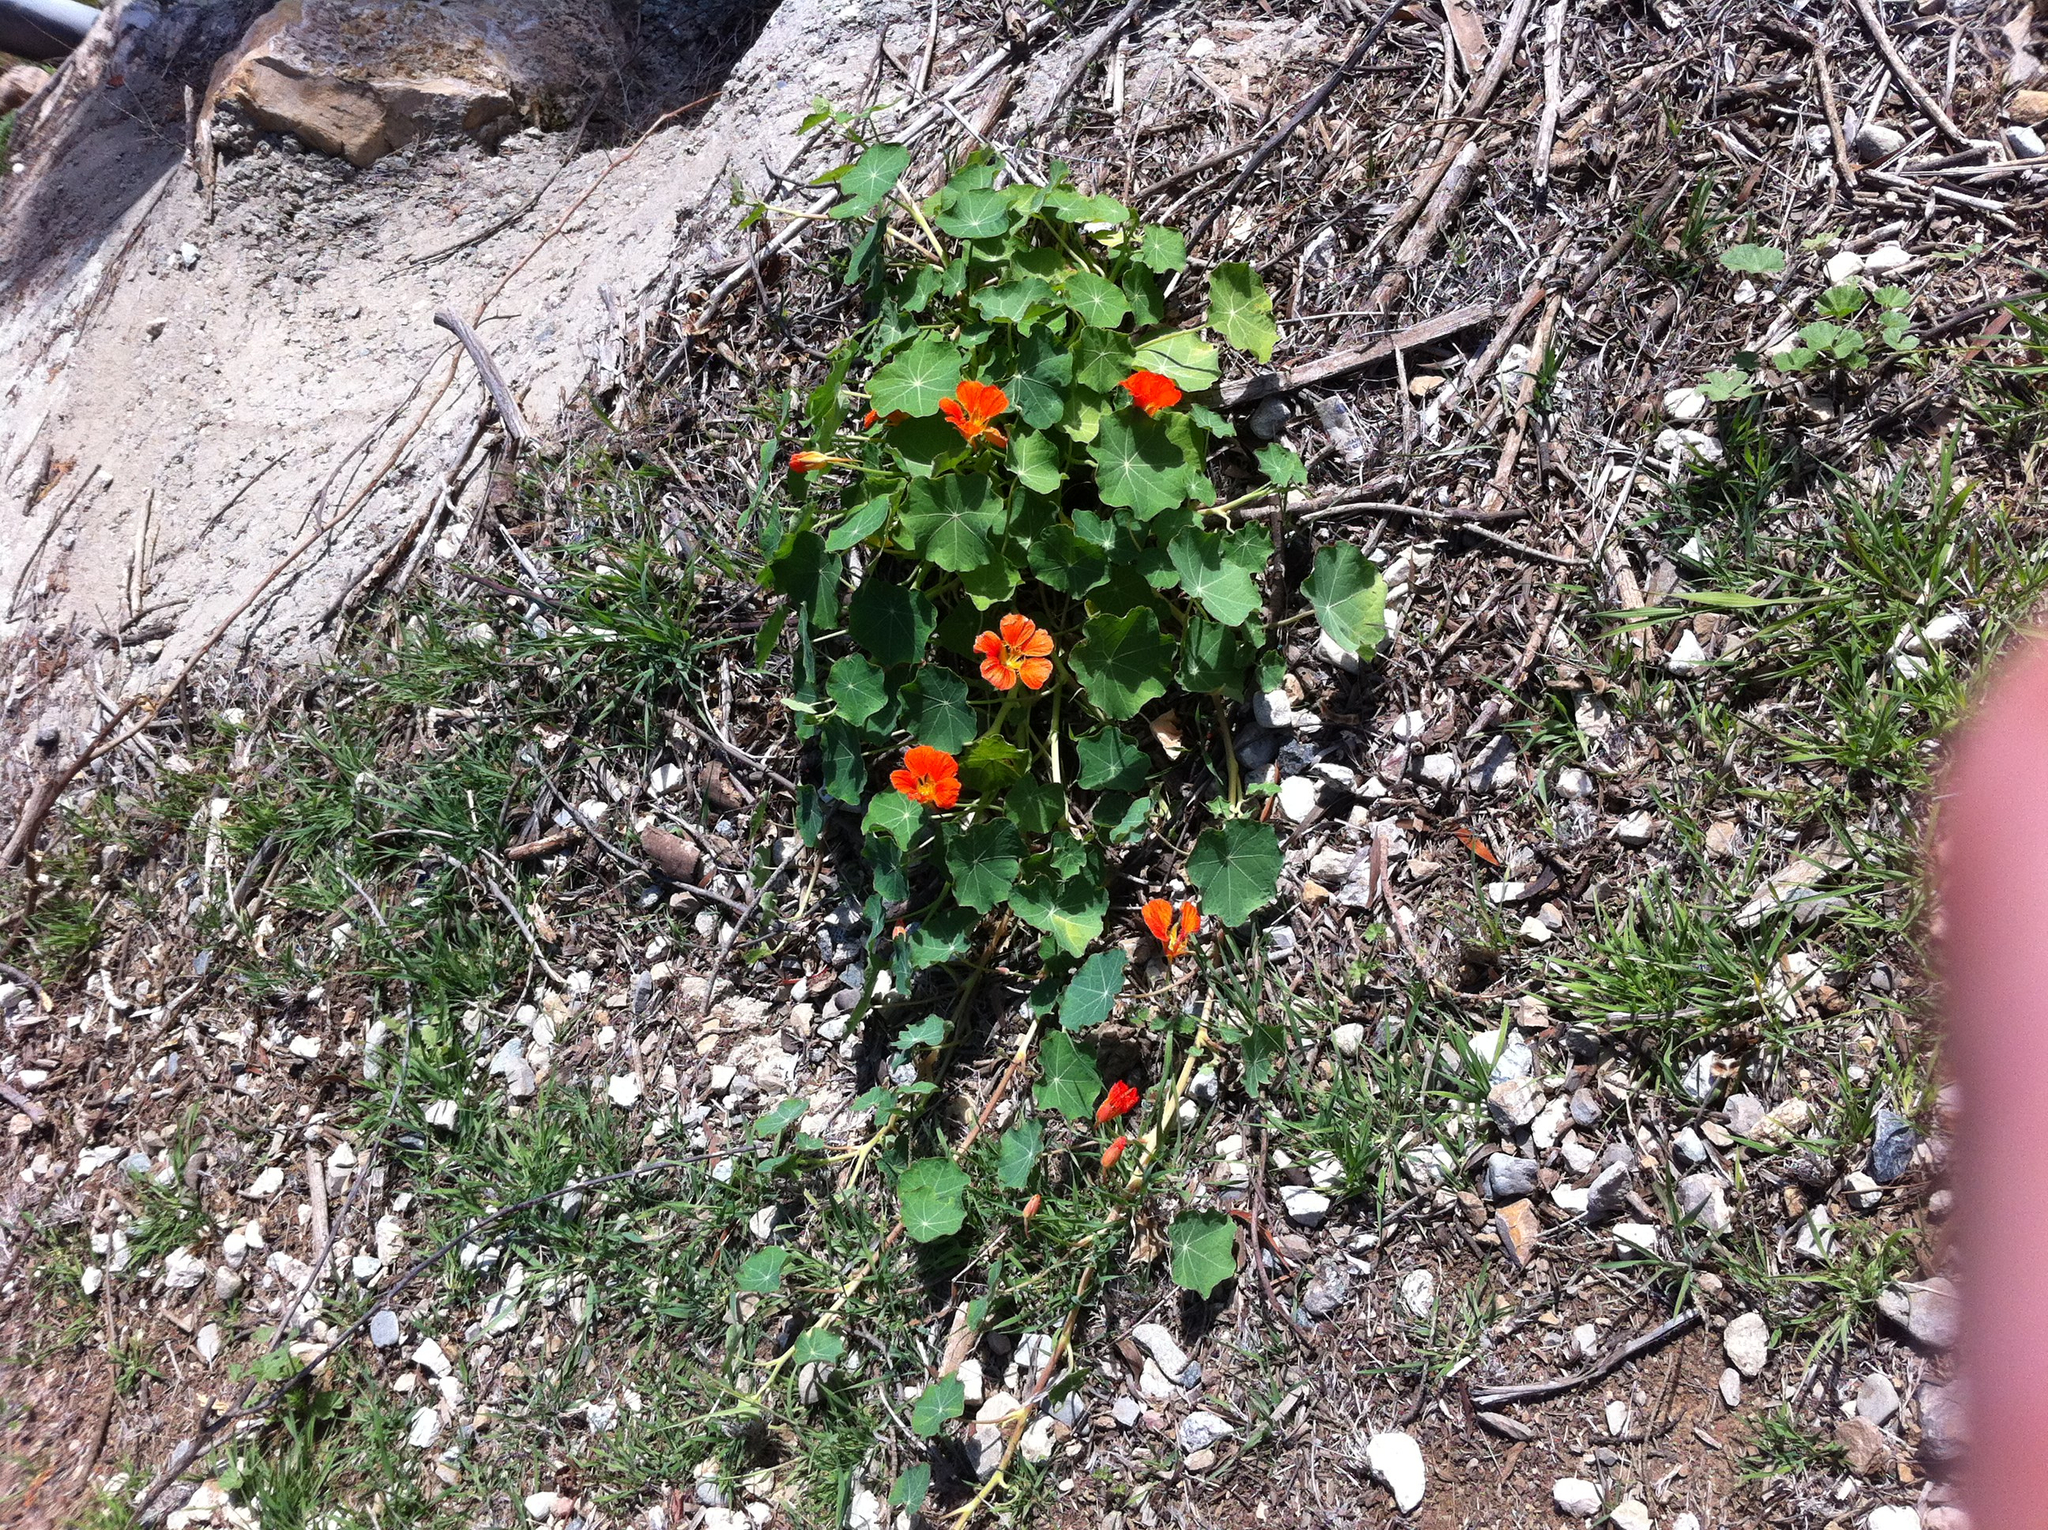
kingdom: Plantae
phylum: Tracheophyta
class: Magnoliopsida
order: Brassicales
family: Tropaeolaceae
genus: Tropaeolum
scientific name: Tropaeolum majus
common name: Nasturtium
